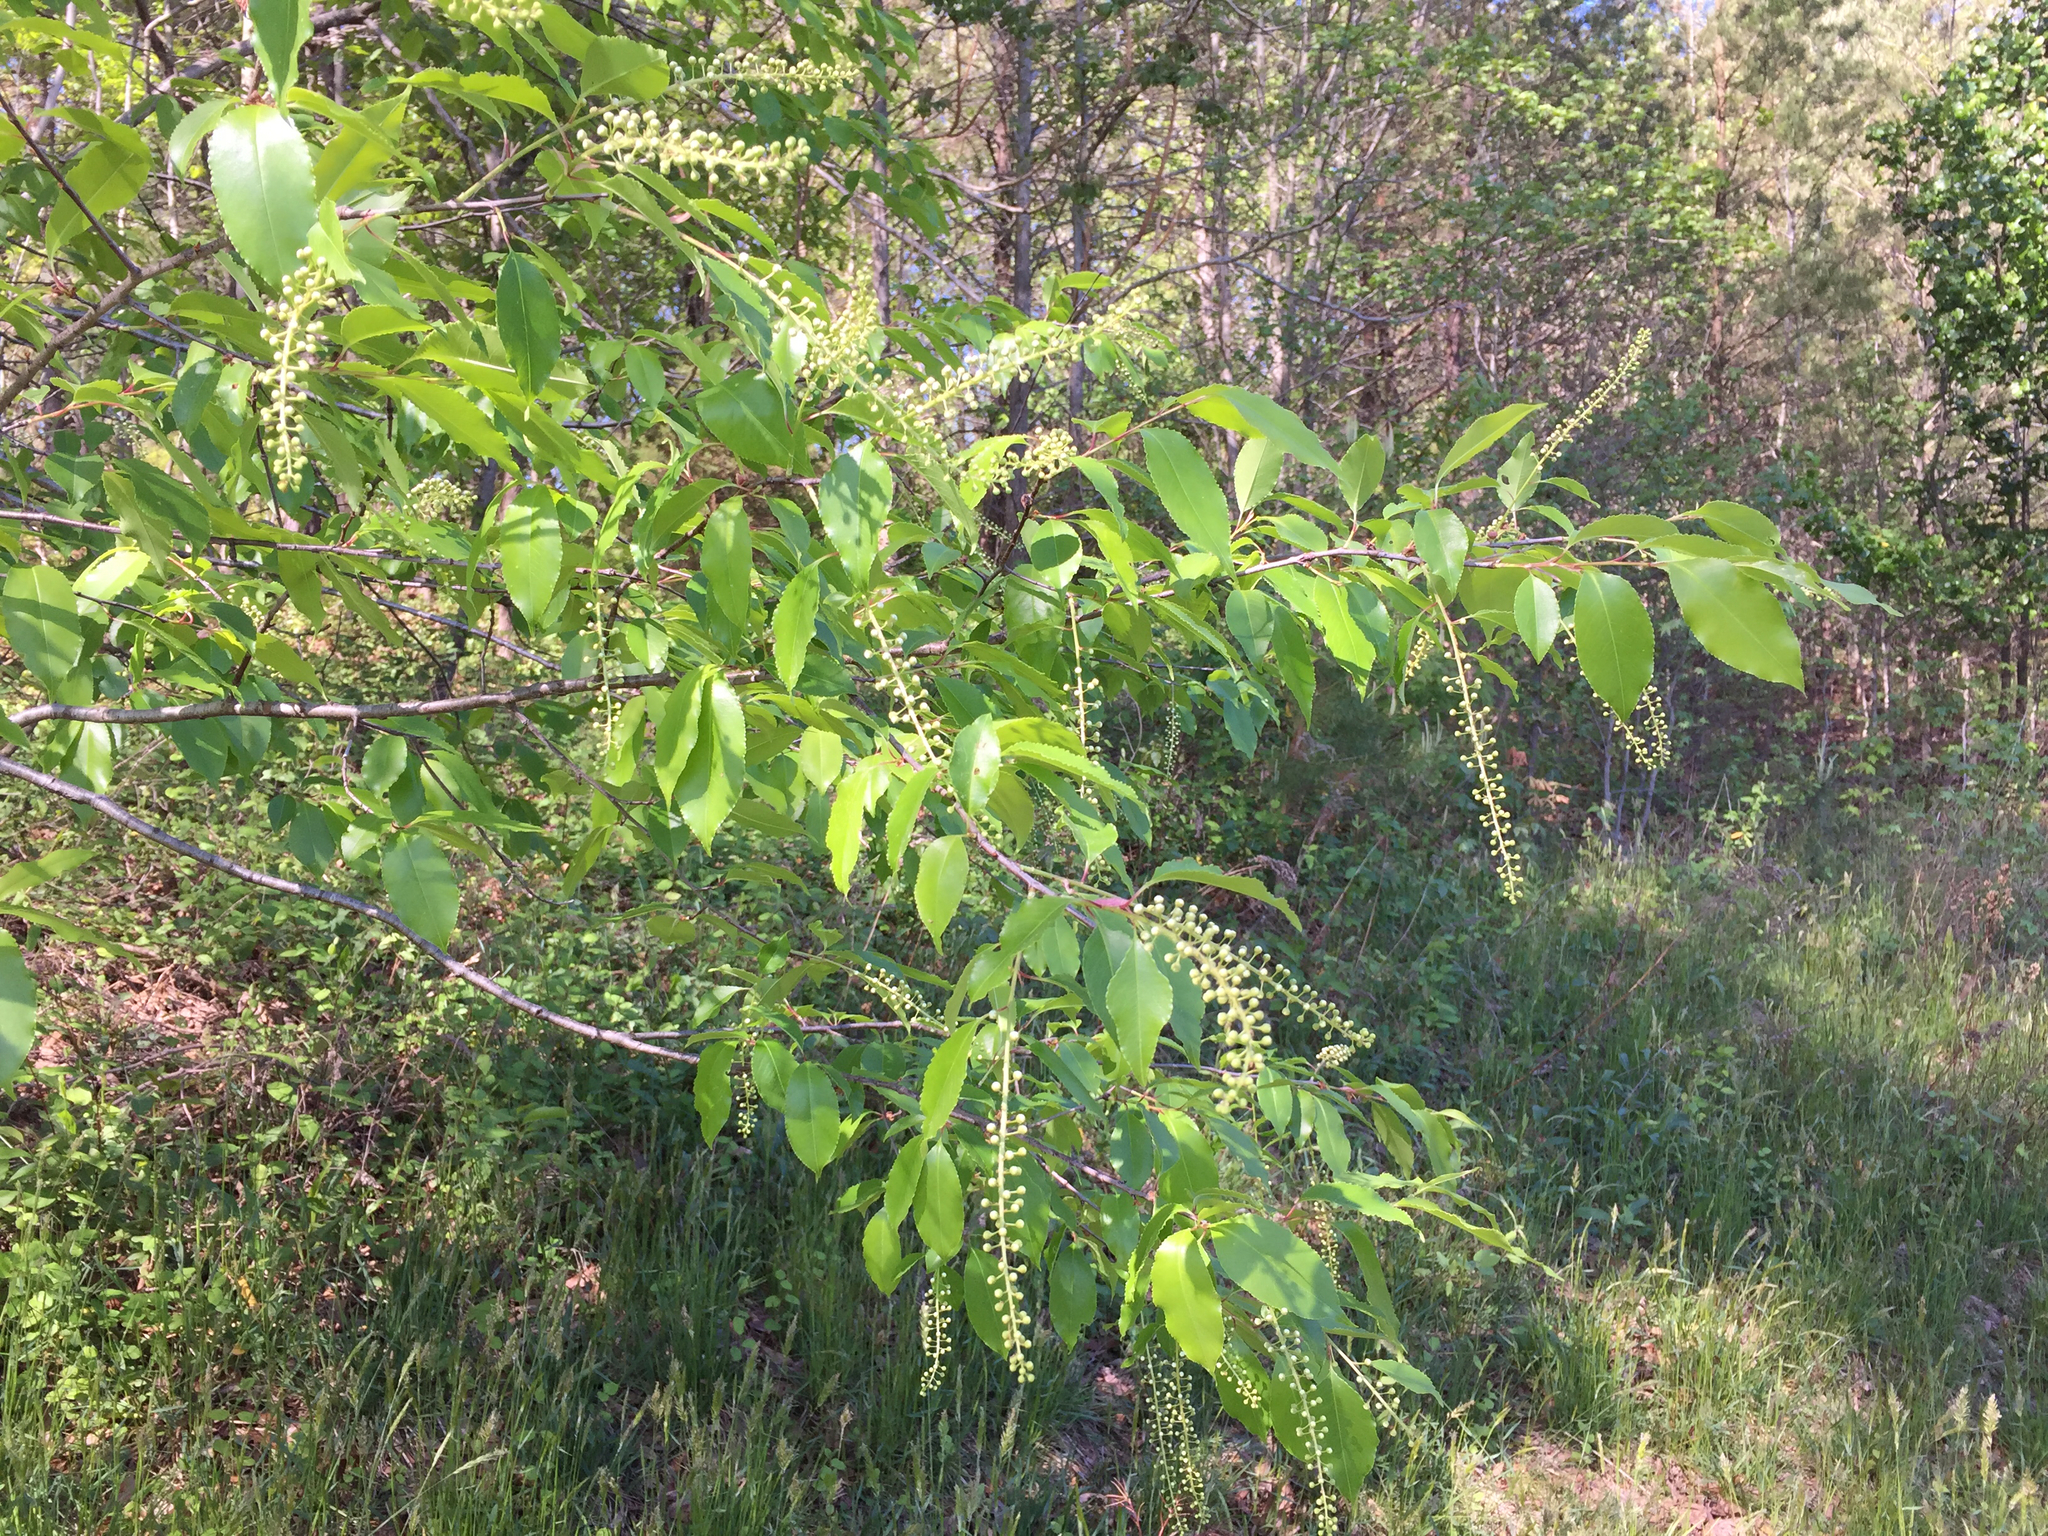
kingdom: Plantae
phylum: Tracheophyta
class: Magnoliopsida
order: Rosales
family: Rosaceae
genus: Prunus
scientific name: Prunus serotina
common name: Black cherry
